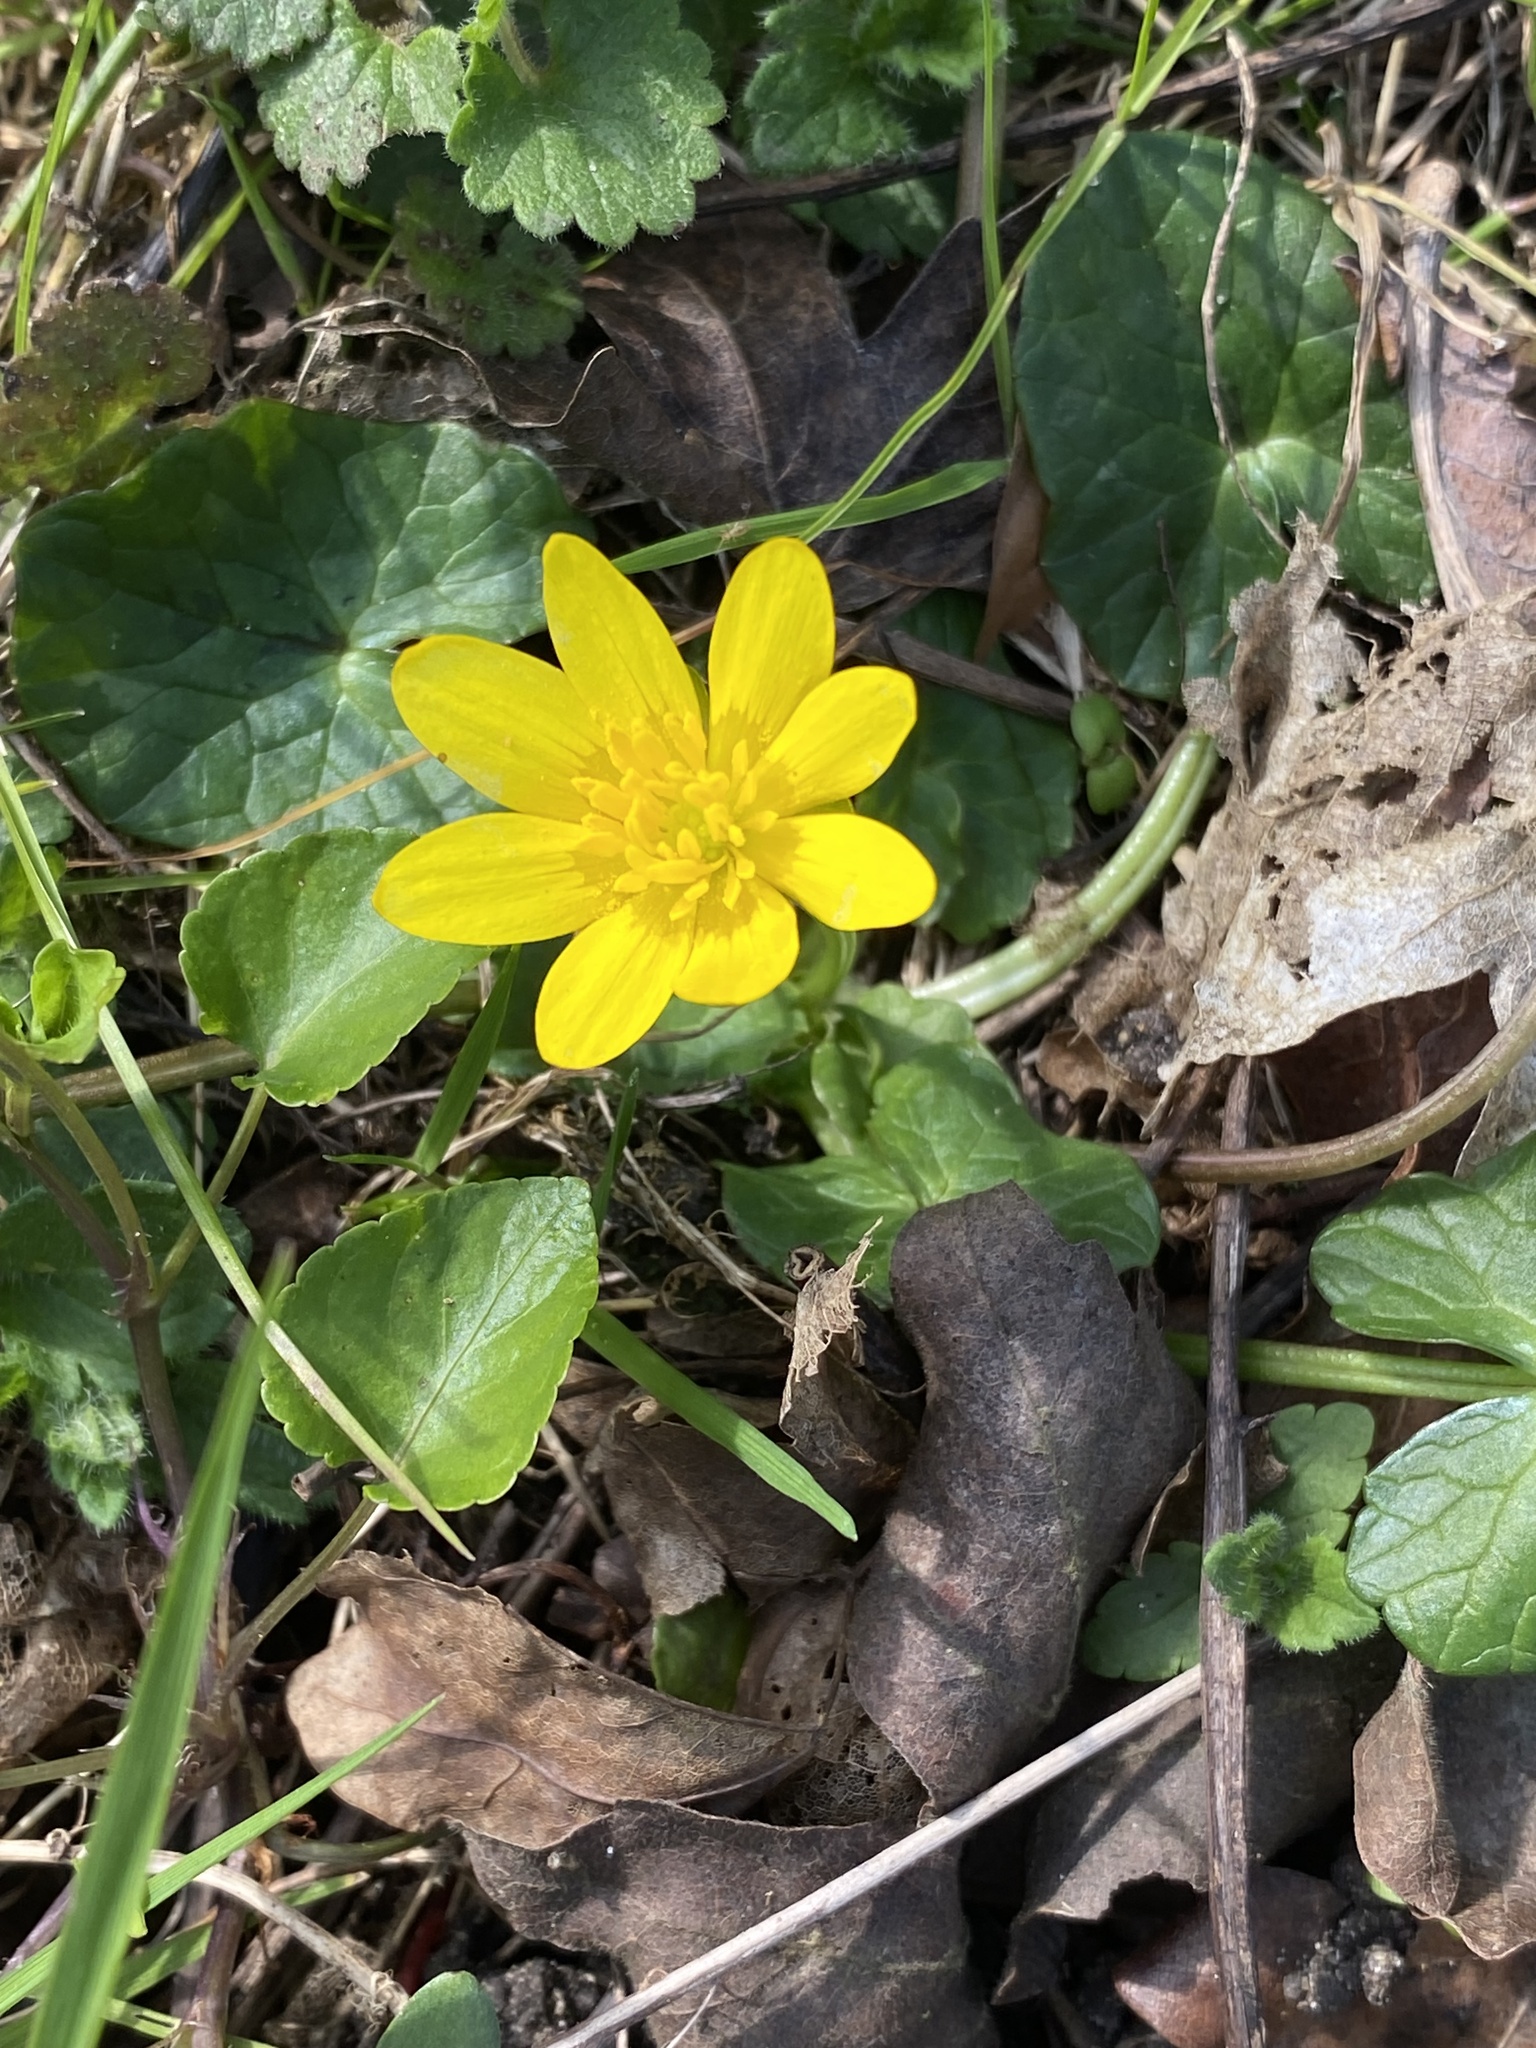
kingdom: Plantae
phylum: Tracheophyta
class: Magnoliopsida
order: Ranunculales
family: Ranunculaceae
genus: Ficaria
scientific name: Ficaria verna
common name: Lesser celandine
